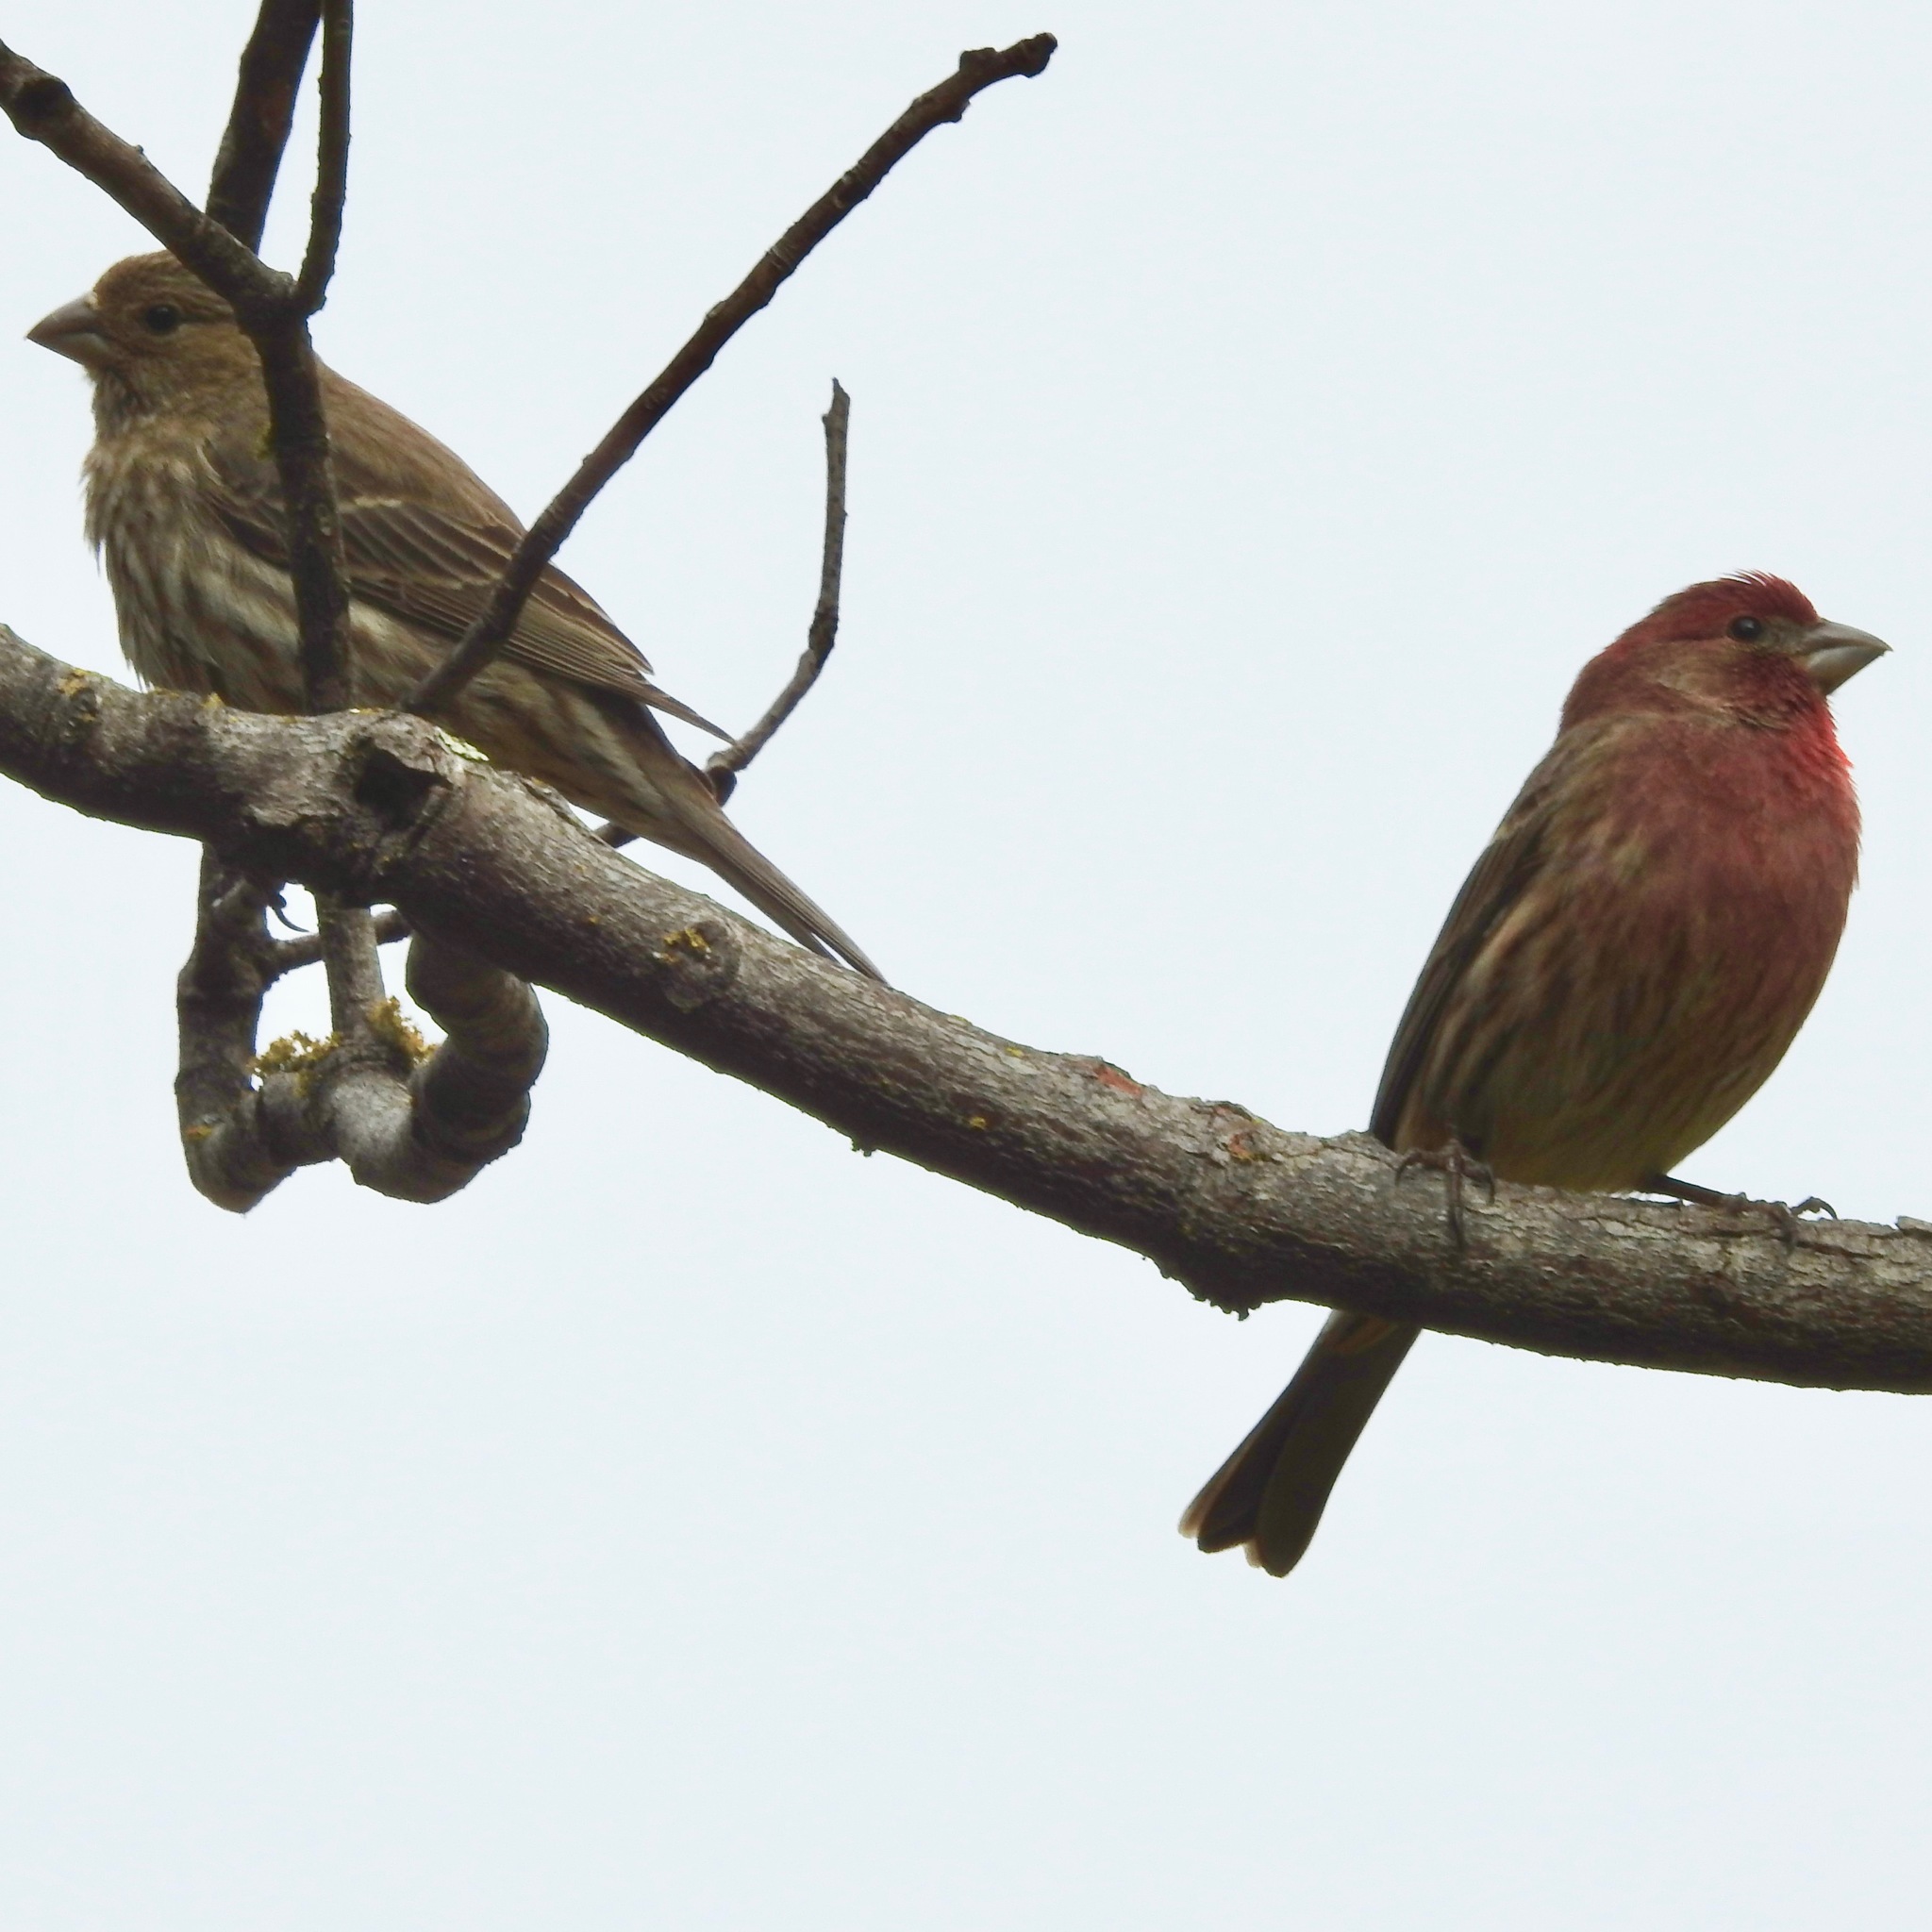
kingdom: Animalia
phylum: Chordata
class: Aves
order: Passeriformes
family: Fringillidae
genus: Haemorhous
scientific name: Haemorhous mexicanus
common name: House finch
